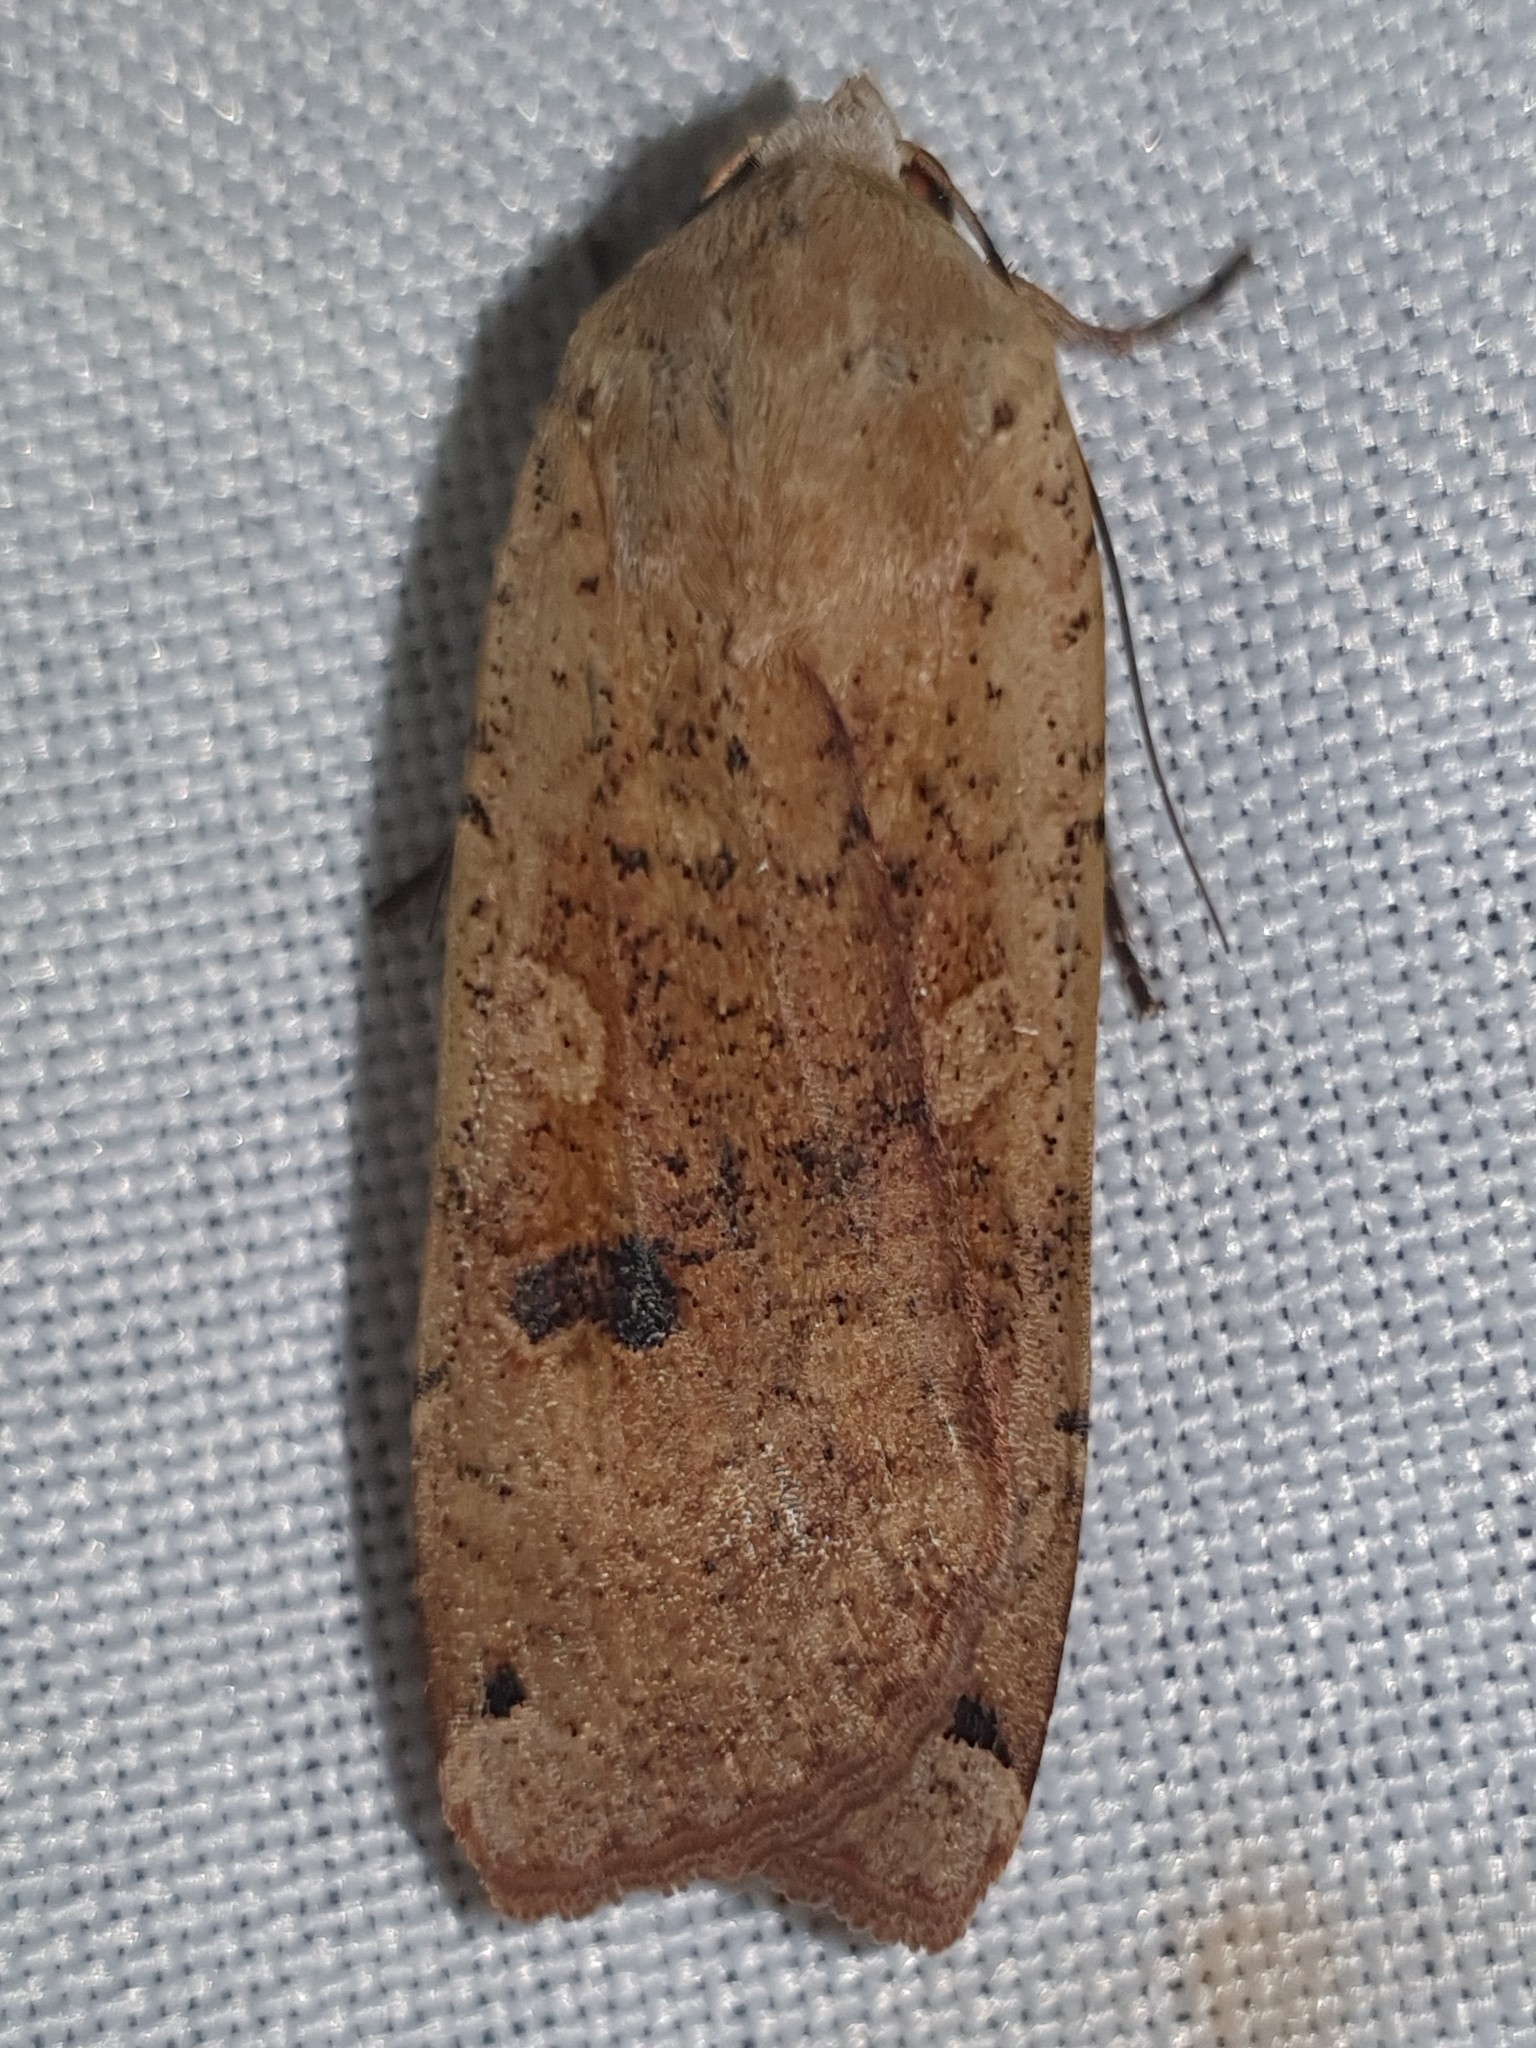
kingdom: Animalia
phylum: Arthropoda
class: Insecta
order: Lepidoptera
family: Noctuidae
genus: Noctua
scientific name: Noctua pronuba
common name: Large yellow underwing
